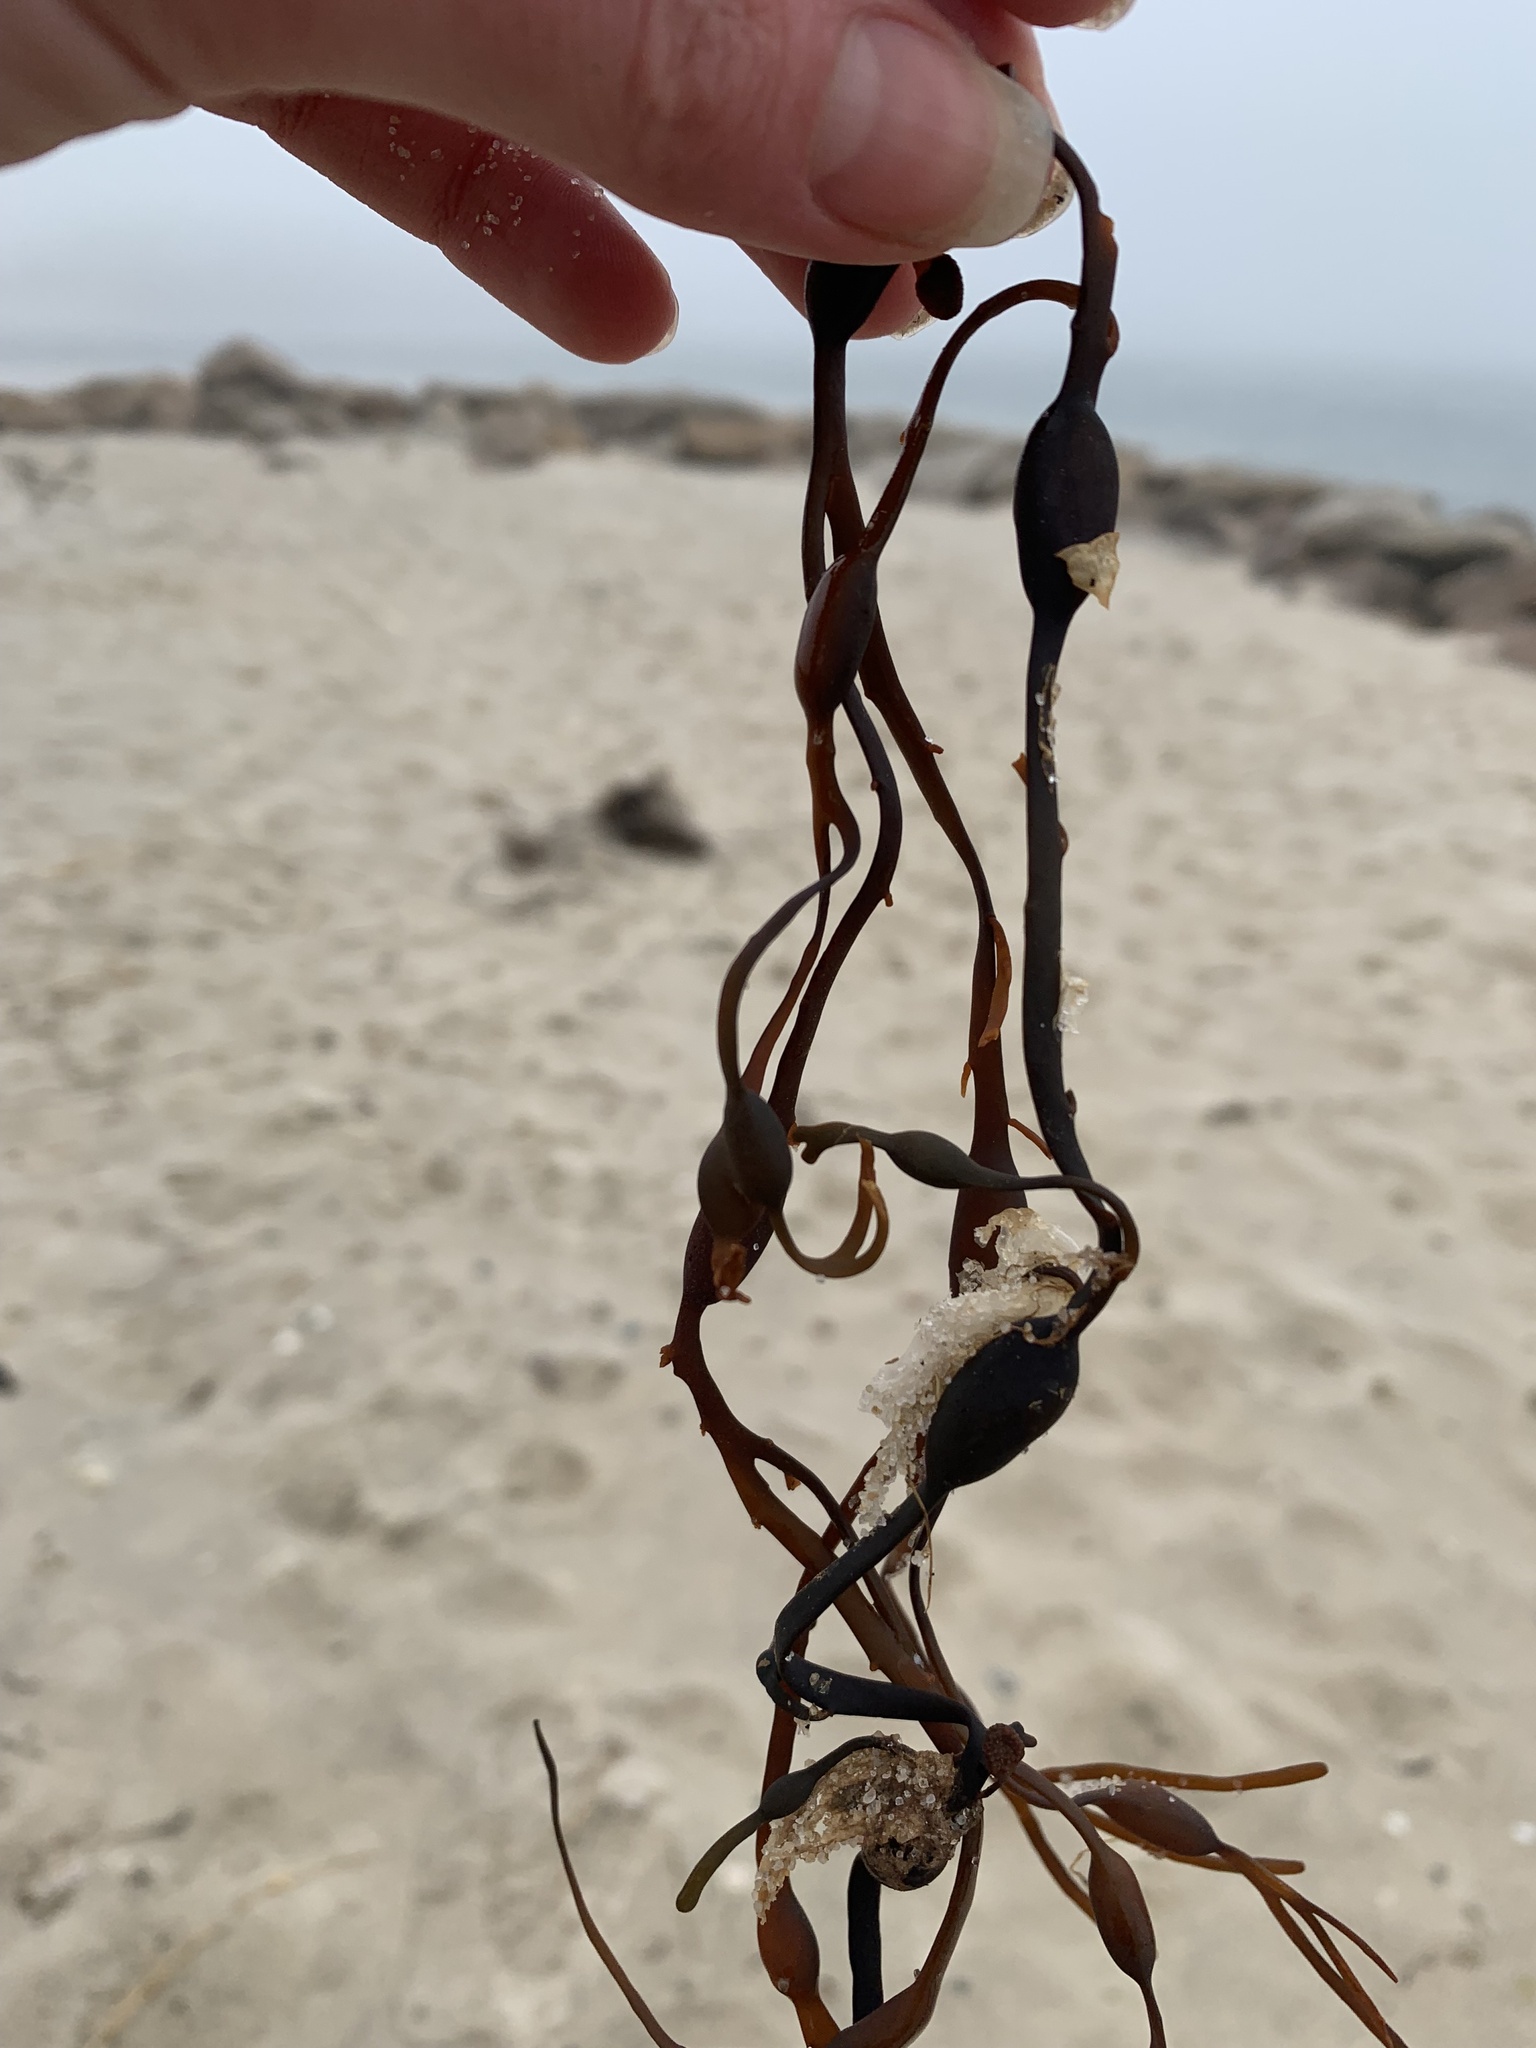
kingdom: Chromista
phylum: Ochrophyta
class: Phaeophyceae
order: Fucales
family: Fucaceae
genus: Ascophyllum
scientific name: Ascophyllum nodosum
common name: Knotted wrack
